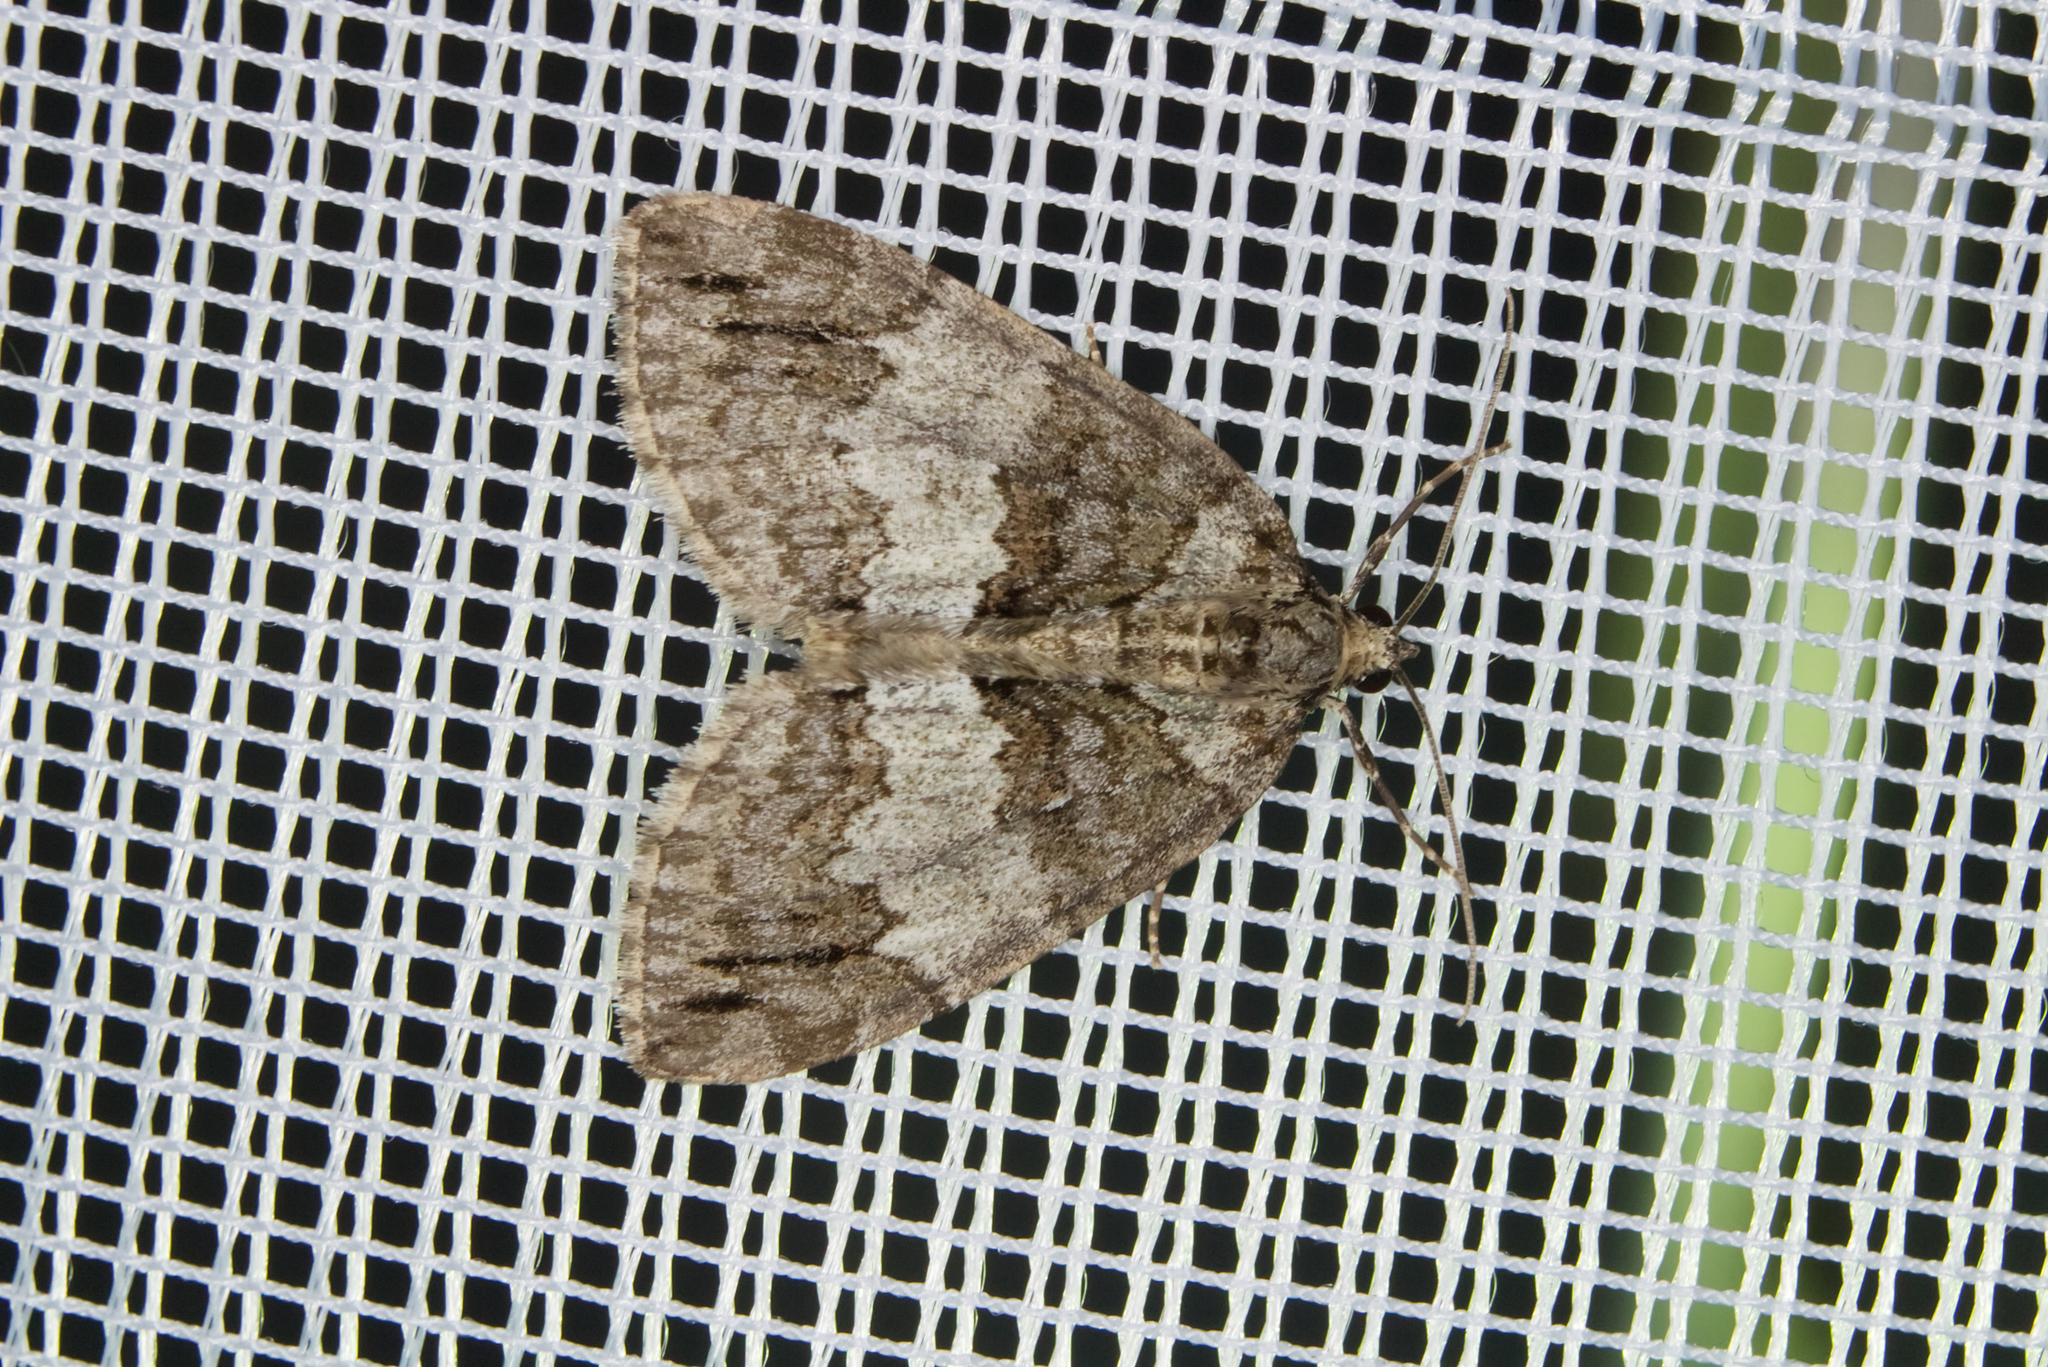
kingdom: Animalia
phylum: Arthropoda
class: Insecta
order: Lepidoptera
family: Geometridae
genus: Hydriomena
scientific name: Hydriomena impluviata
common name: May highflyer
